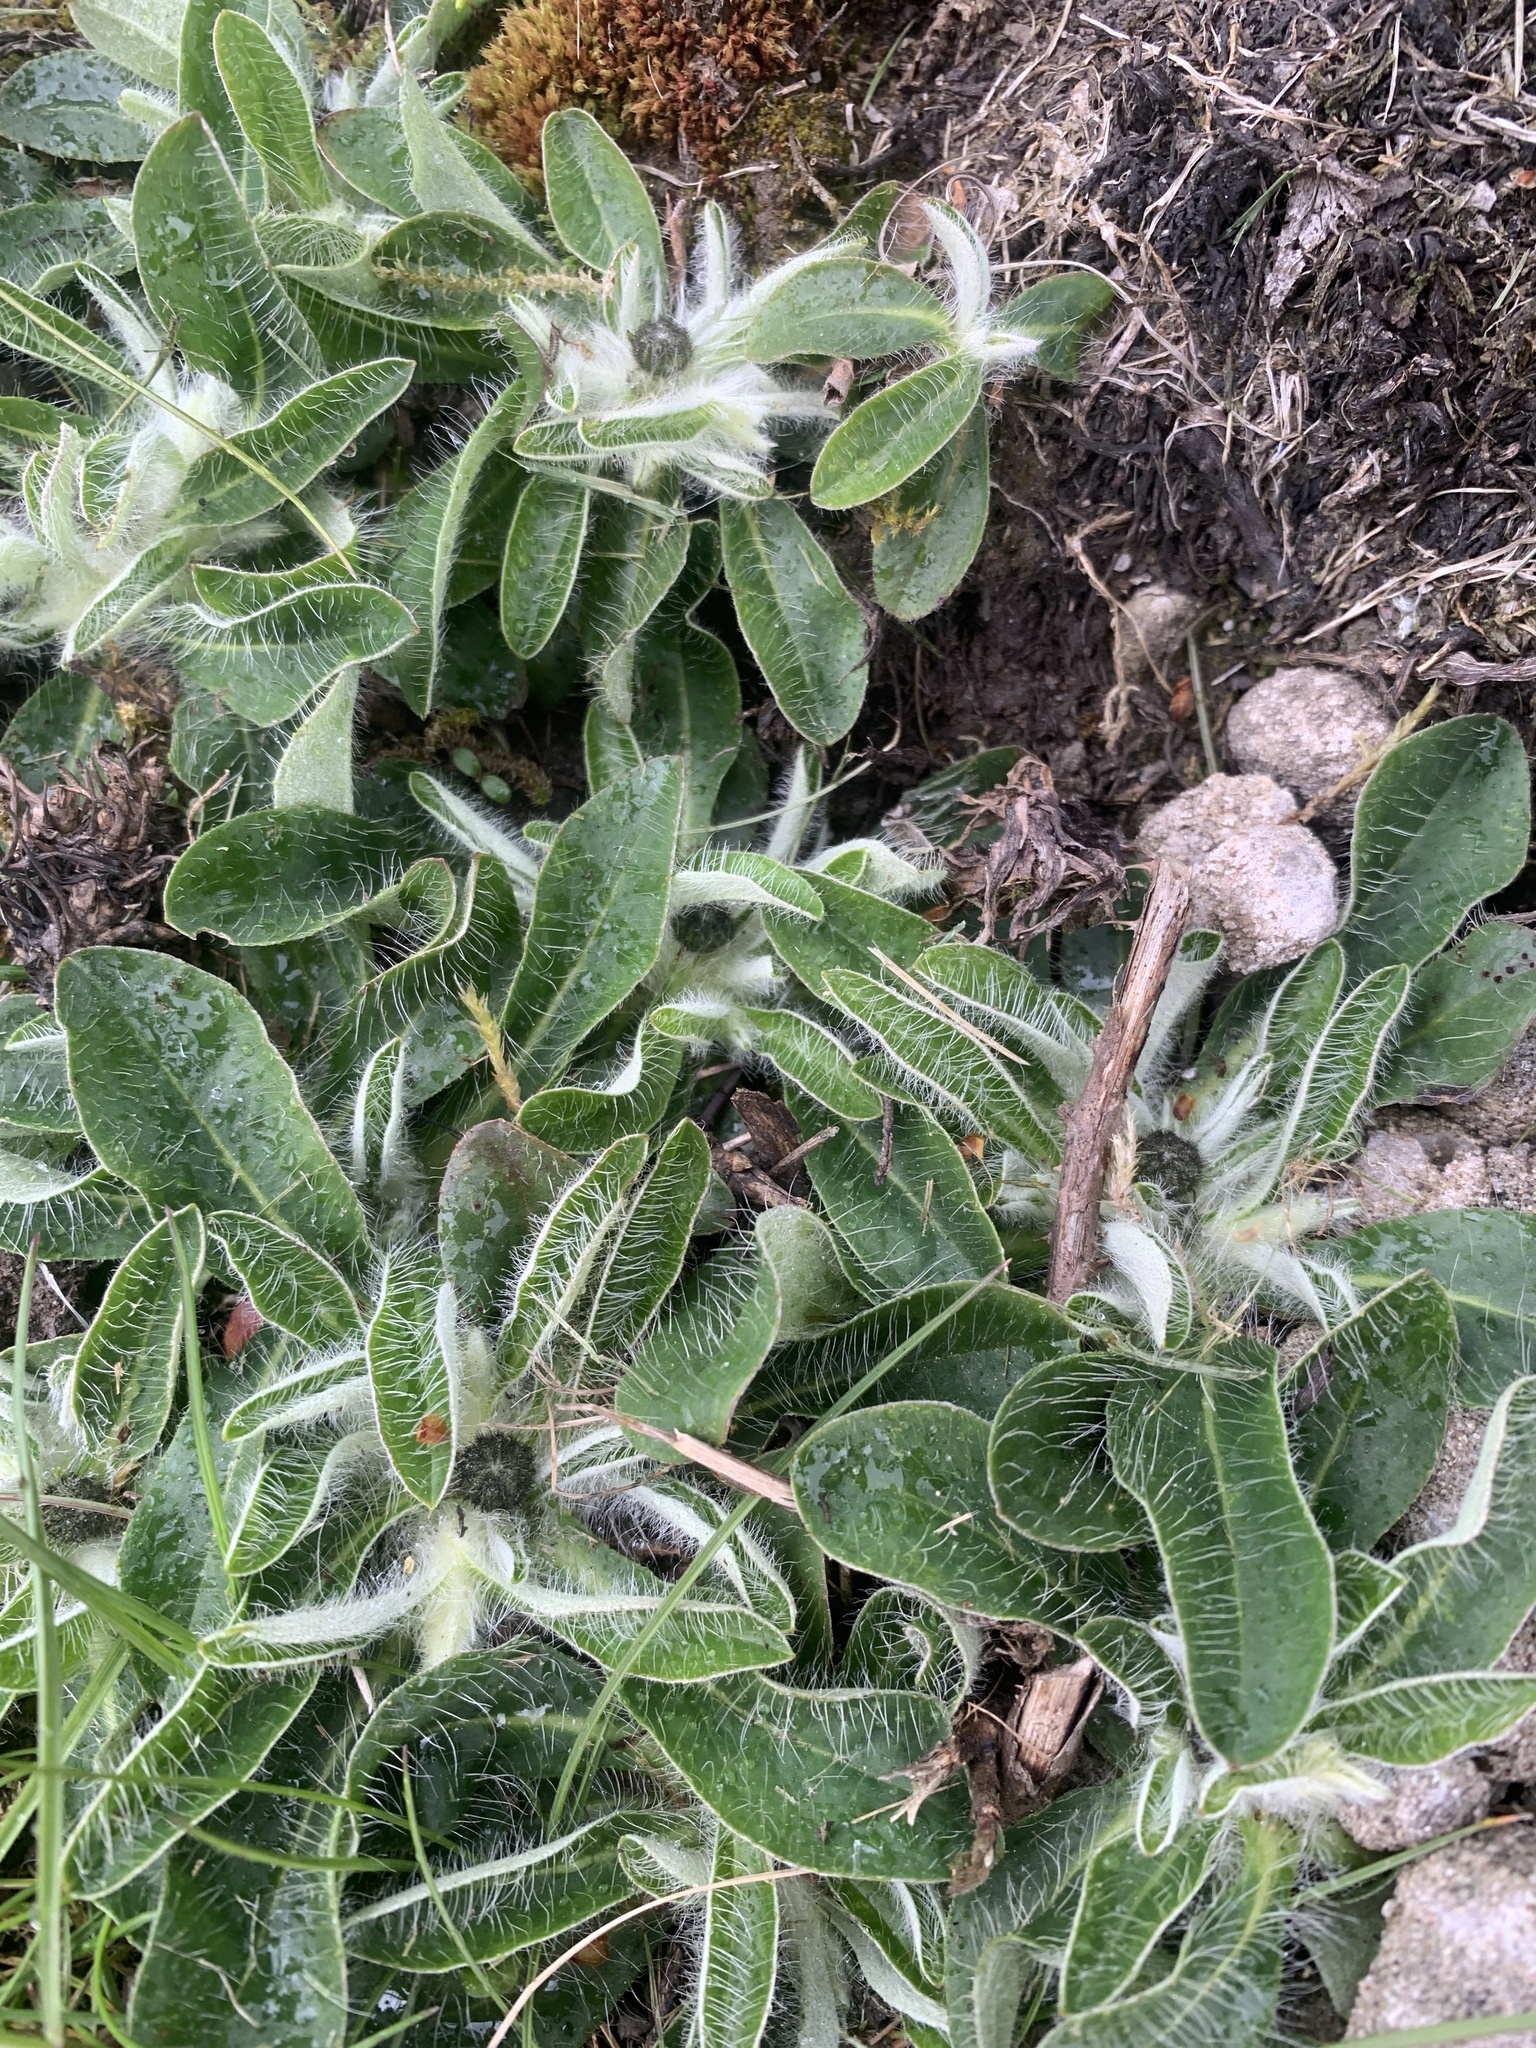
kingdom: Plantae
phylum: Tracheophyta
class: Magnoliopsida
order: Asterales
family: Asteraceae
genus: Pilosella
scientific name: Pilosella officinarum
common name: Mouse-ear hawkweed
